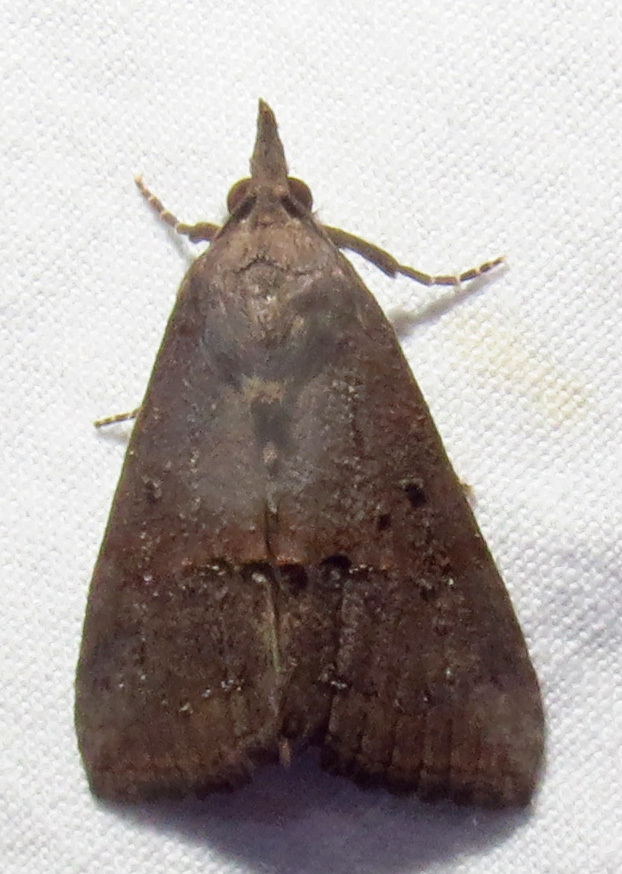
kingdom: Animalia
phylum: Arthropoda
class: Insecta
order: Lepidoptera
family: Erebidae
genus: Hypena
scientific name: Hypena scabra
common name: Green cloverworm
